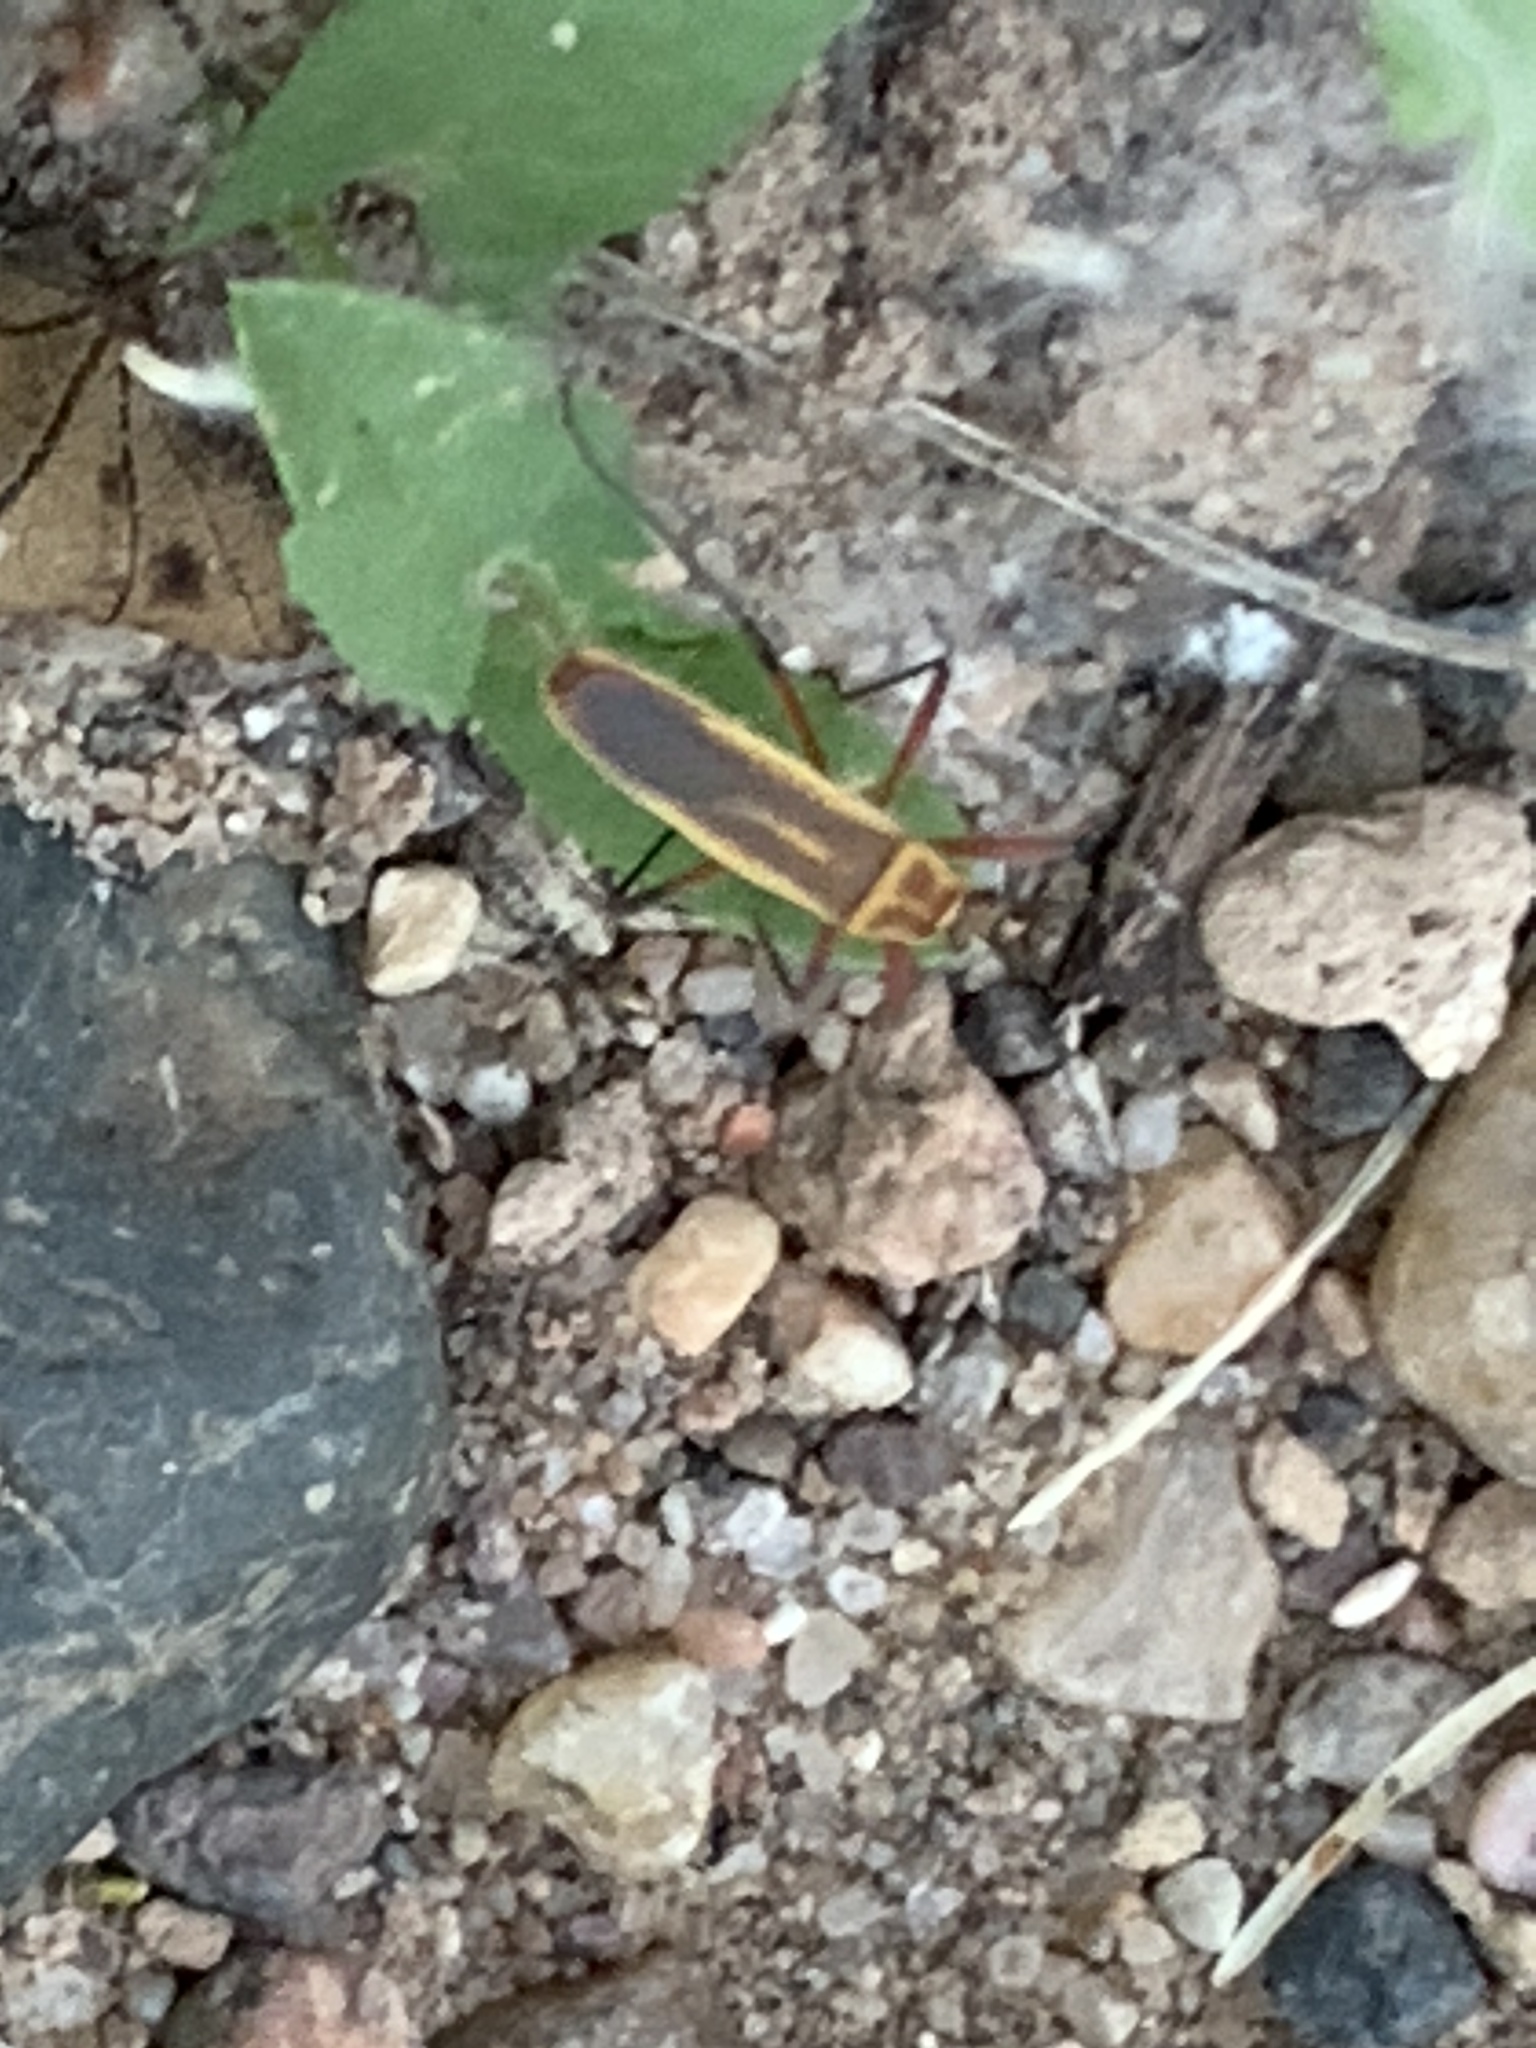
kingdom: Animalia
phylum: Arthropoda
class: Insecta
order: Hemiptera
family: Largidae
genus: Stenomacra
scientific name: Stenomacra marginella
